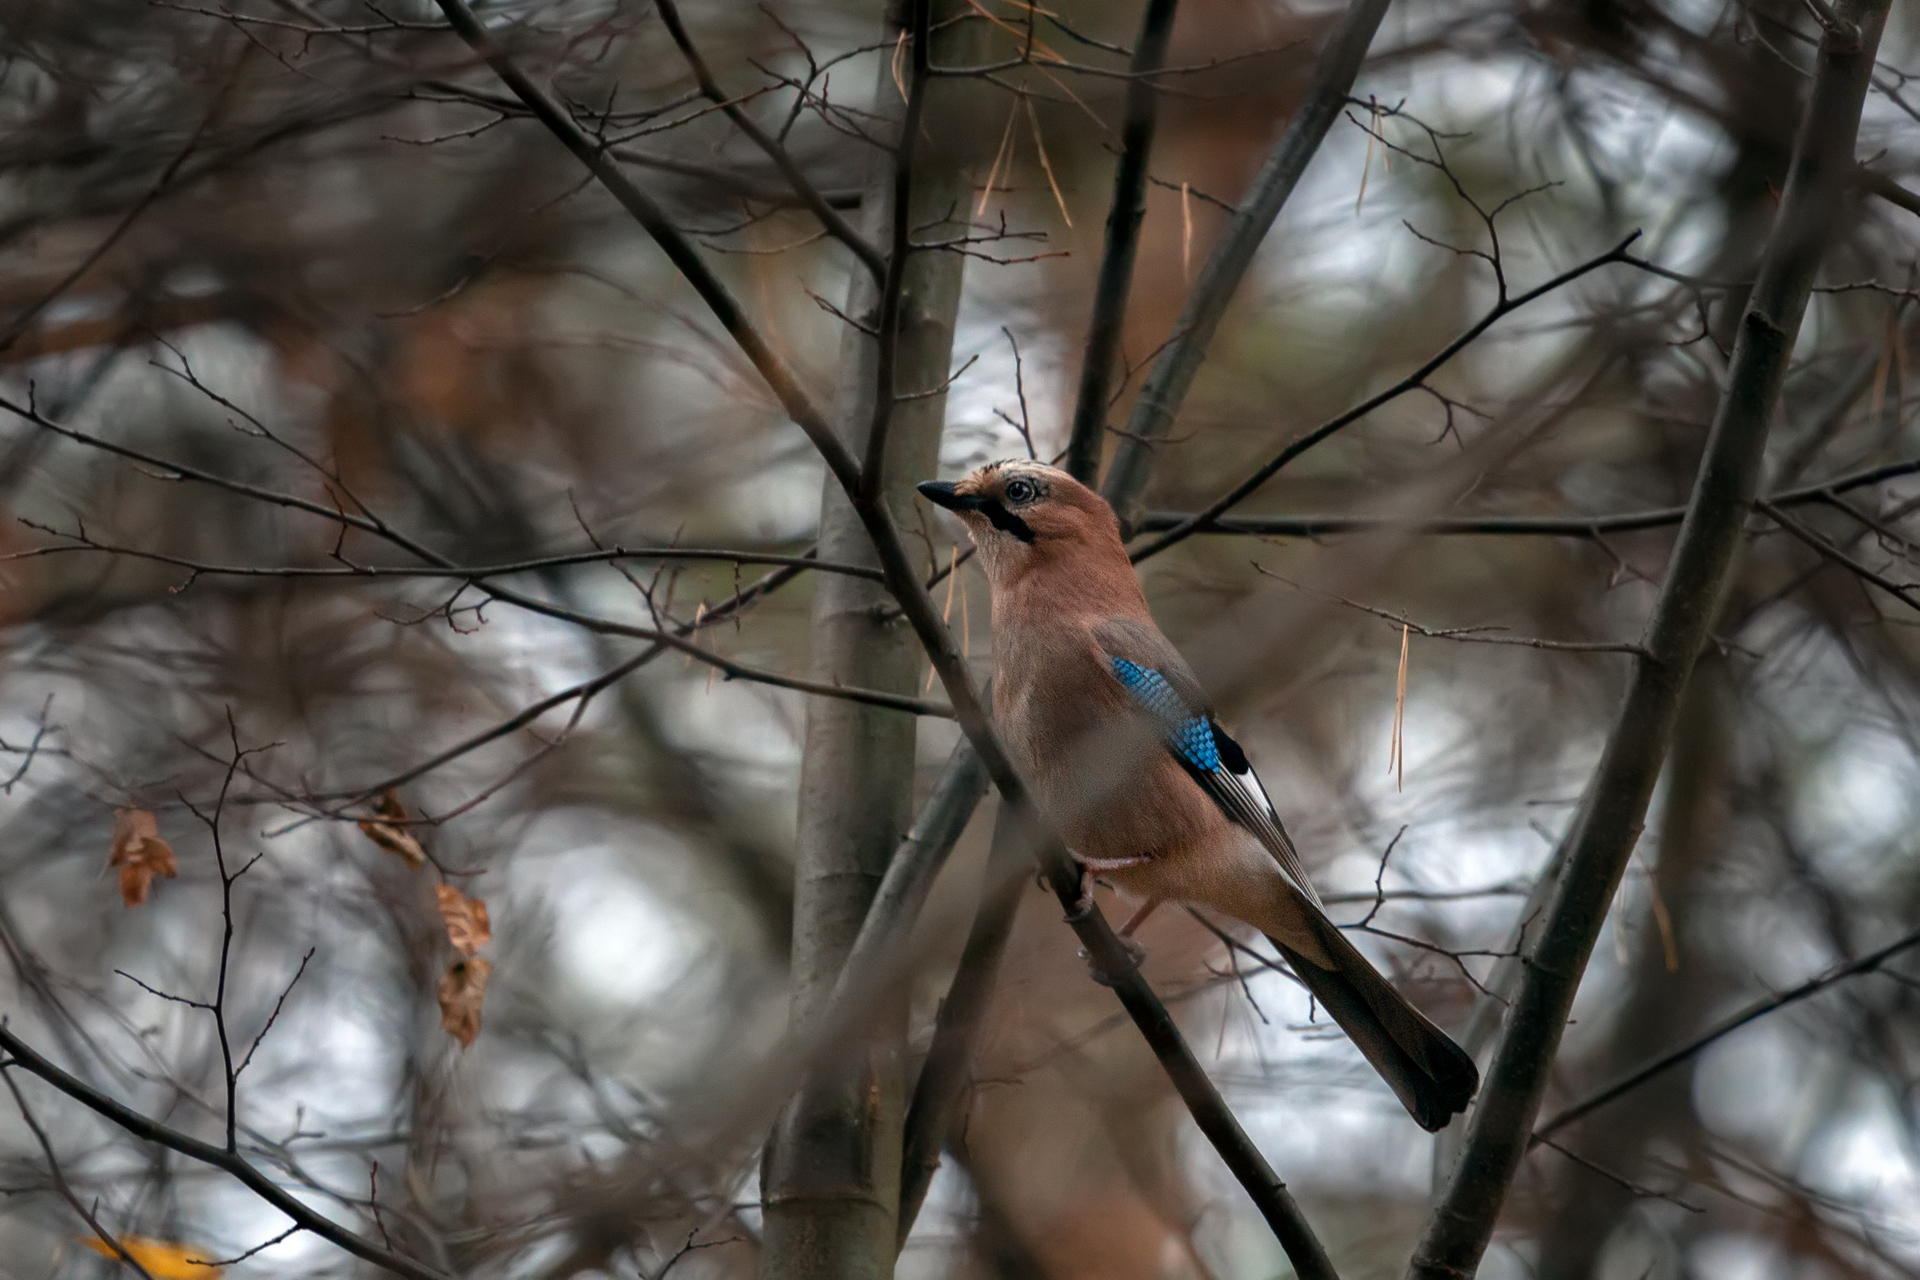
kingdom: Animalia
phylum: Chordata
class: Aves
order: Passeriformes
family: Corvidae
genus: Garrulus
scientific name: Garrulus glandarius
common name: Eurasian jay
